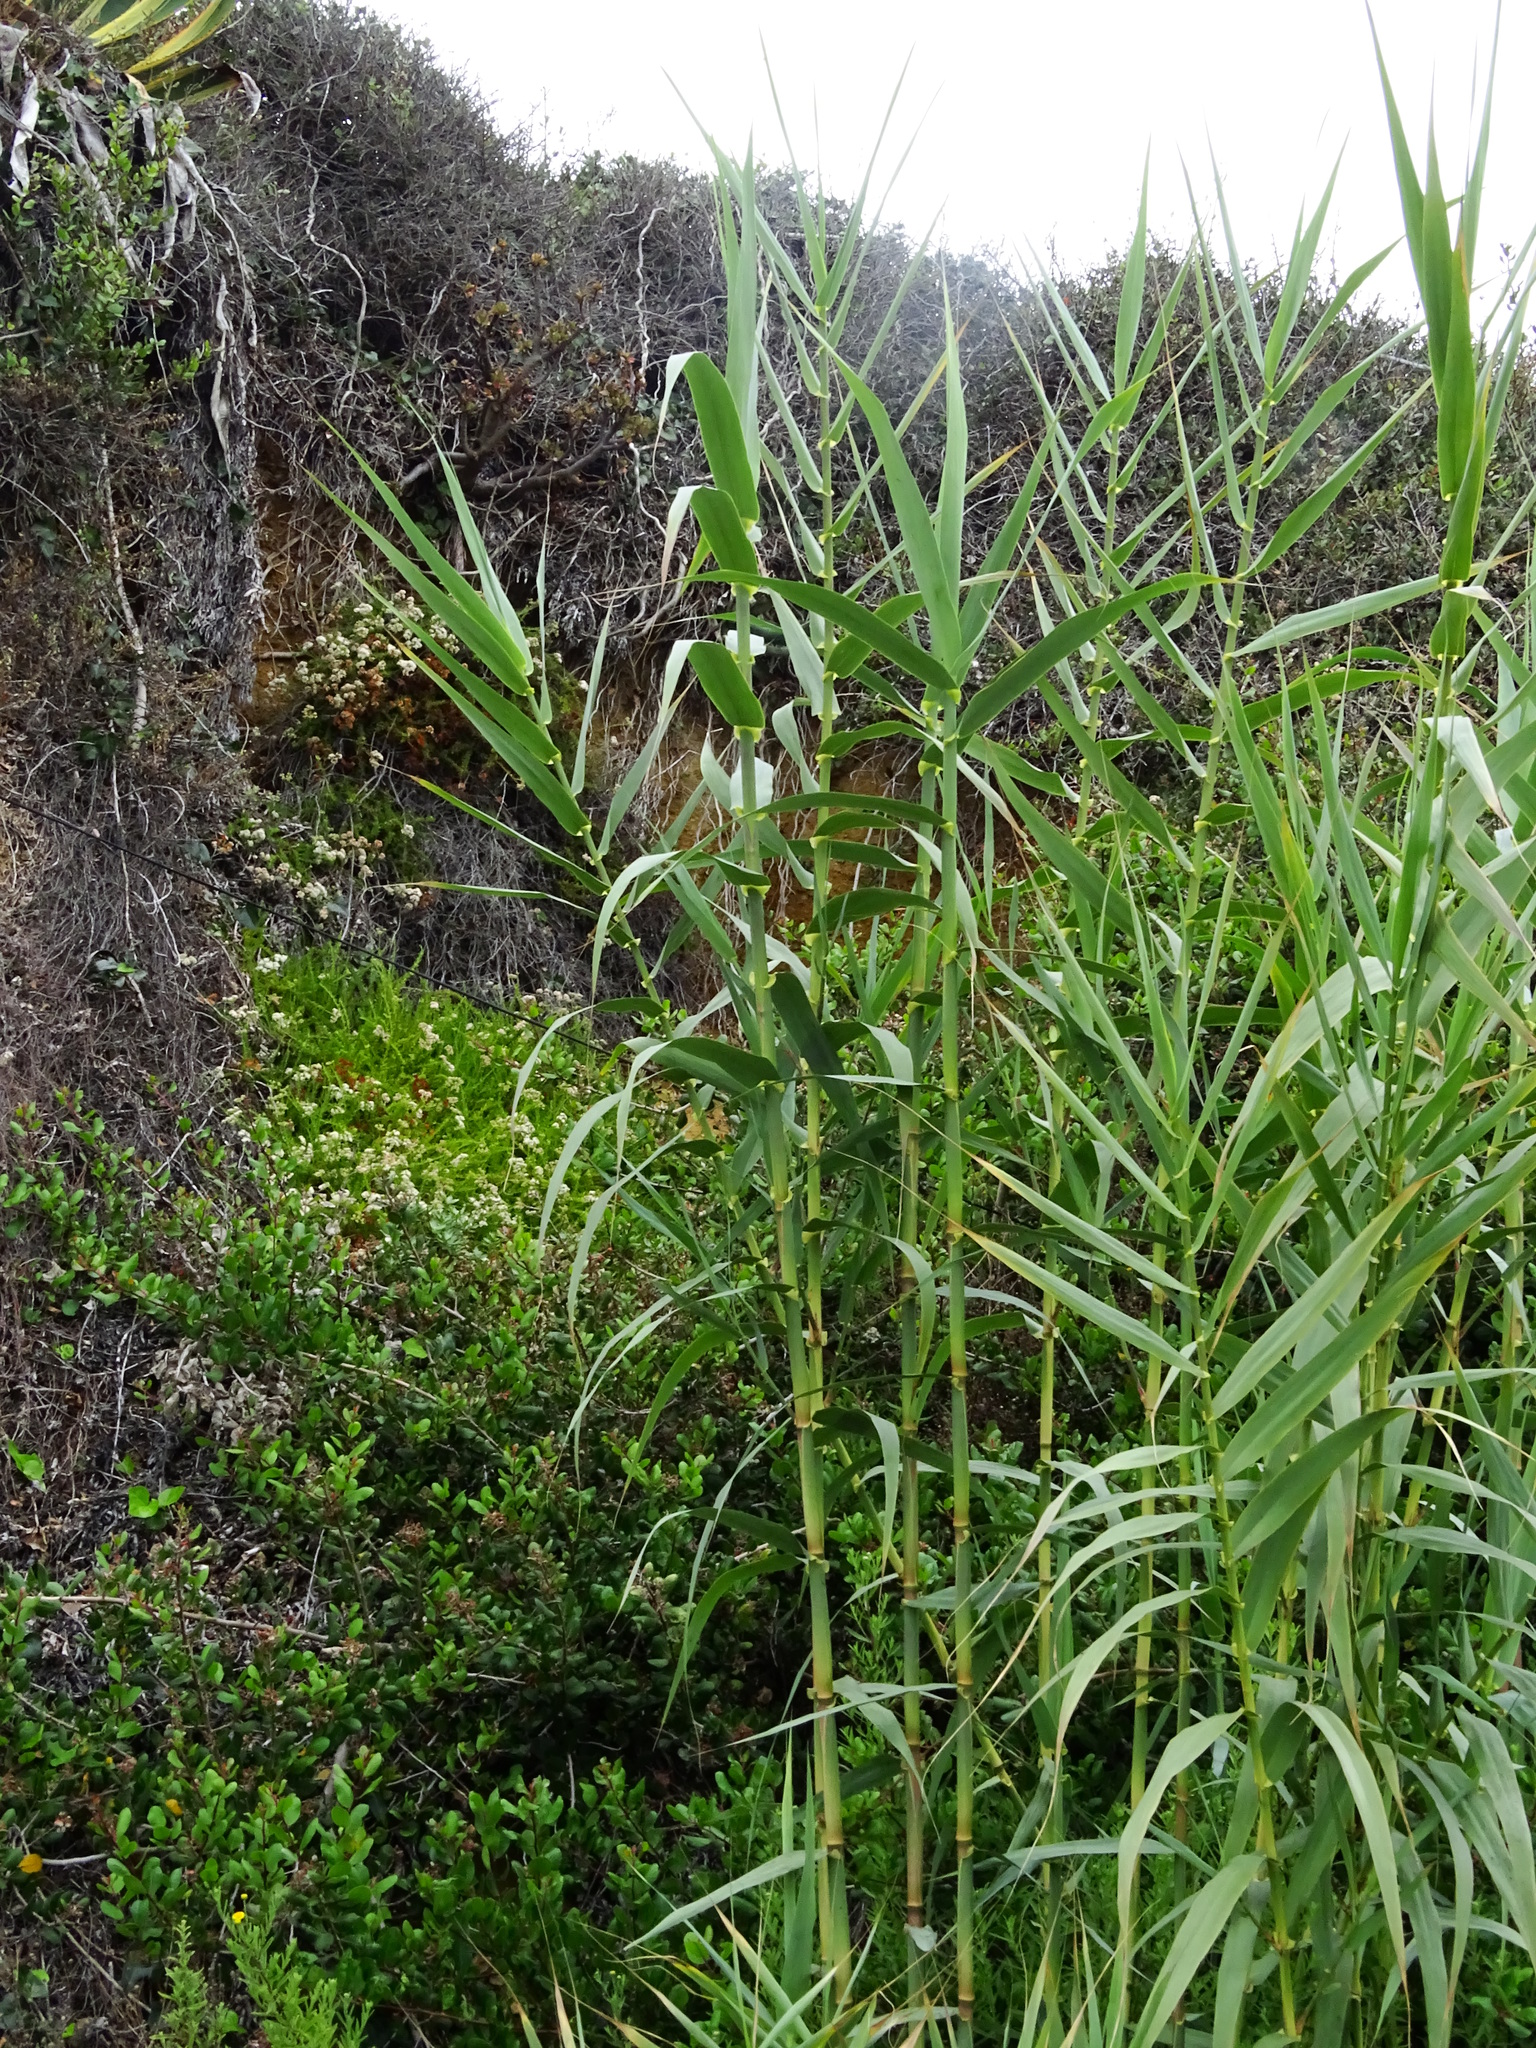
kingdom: Plantae
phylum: Tracheophyta
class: Liliopsida
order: Poales
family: Poaceae
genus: Arundo
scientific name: Arundo donax
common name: Giant reed
